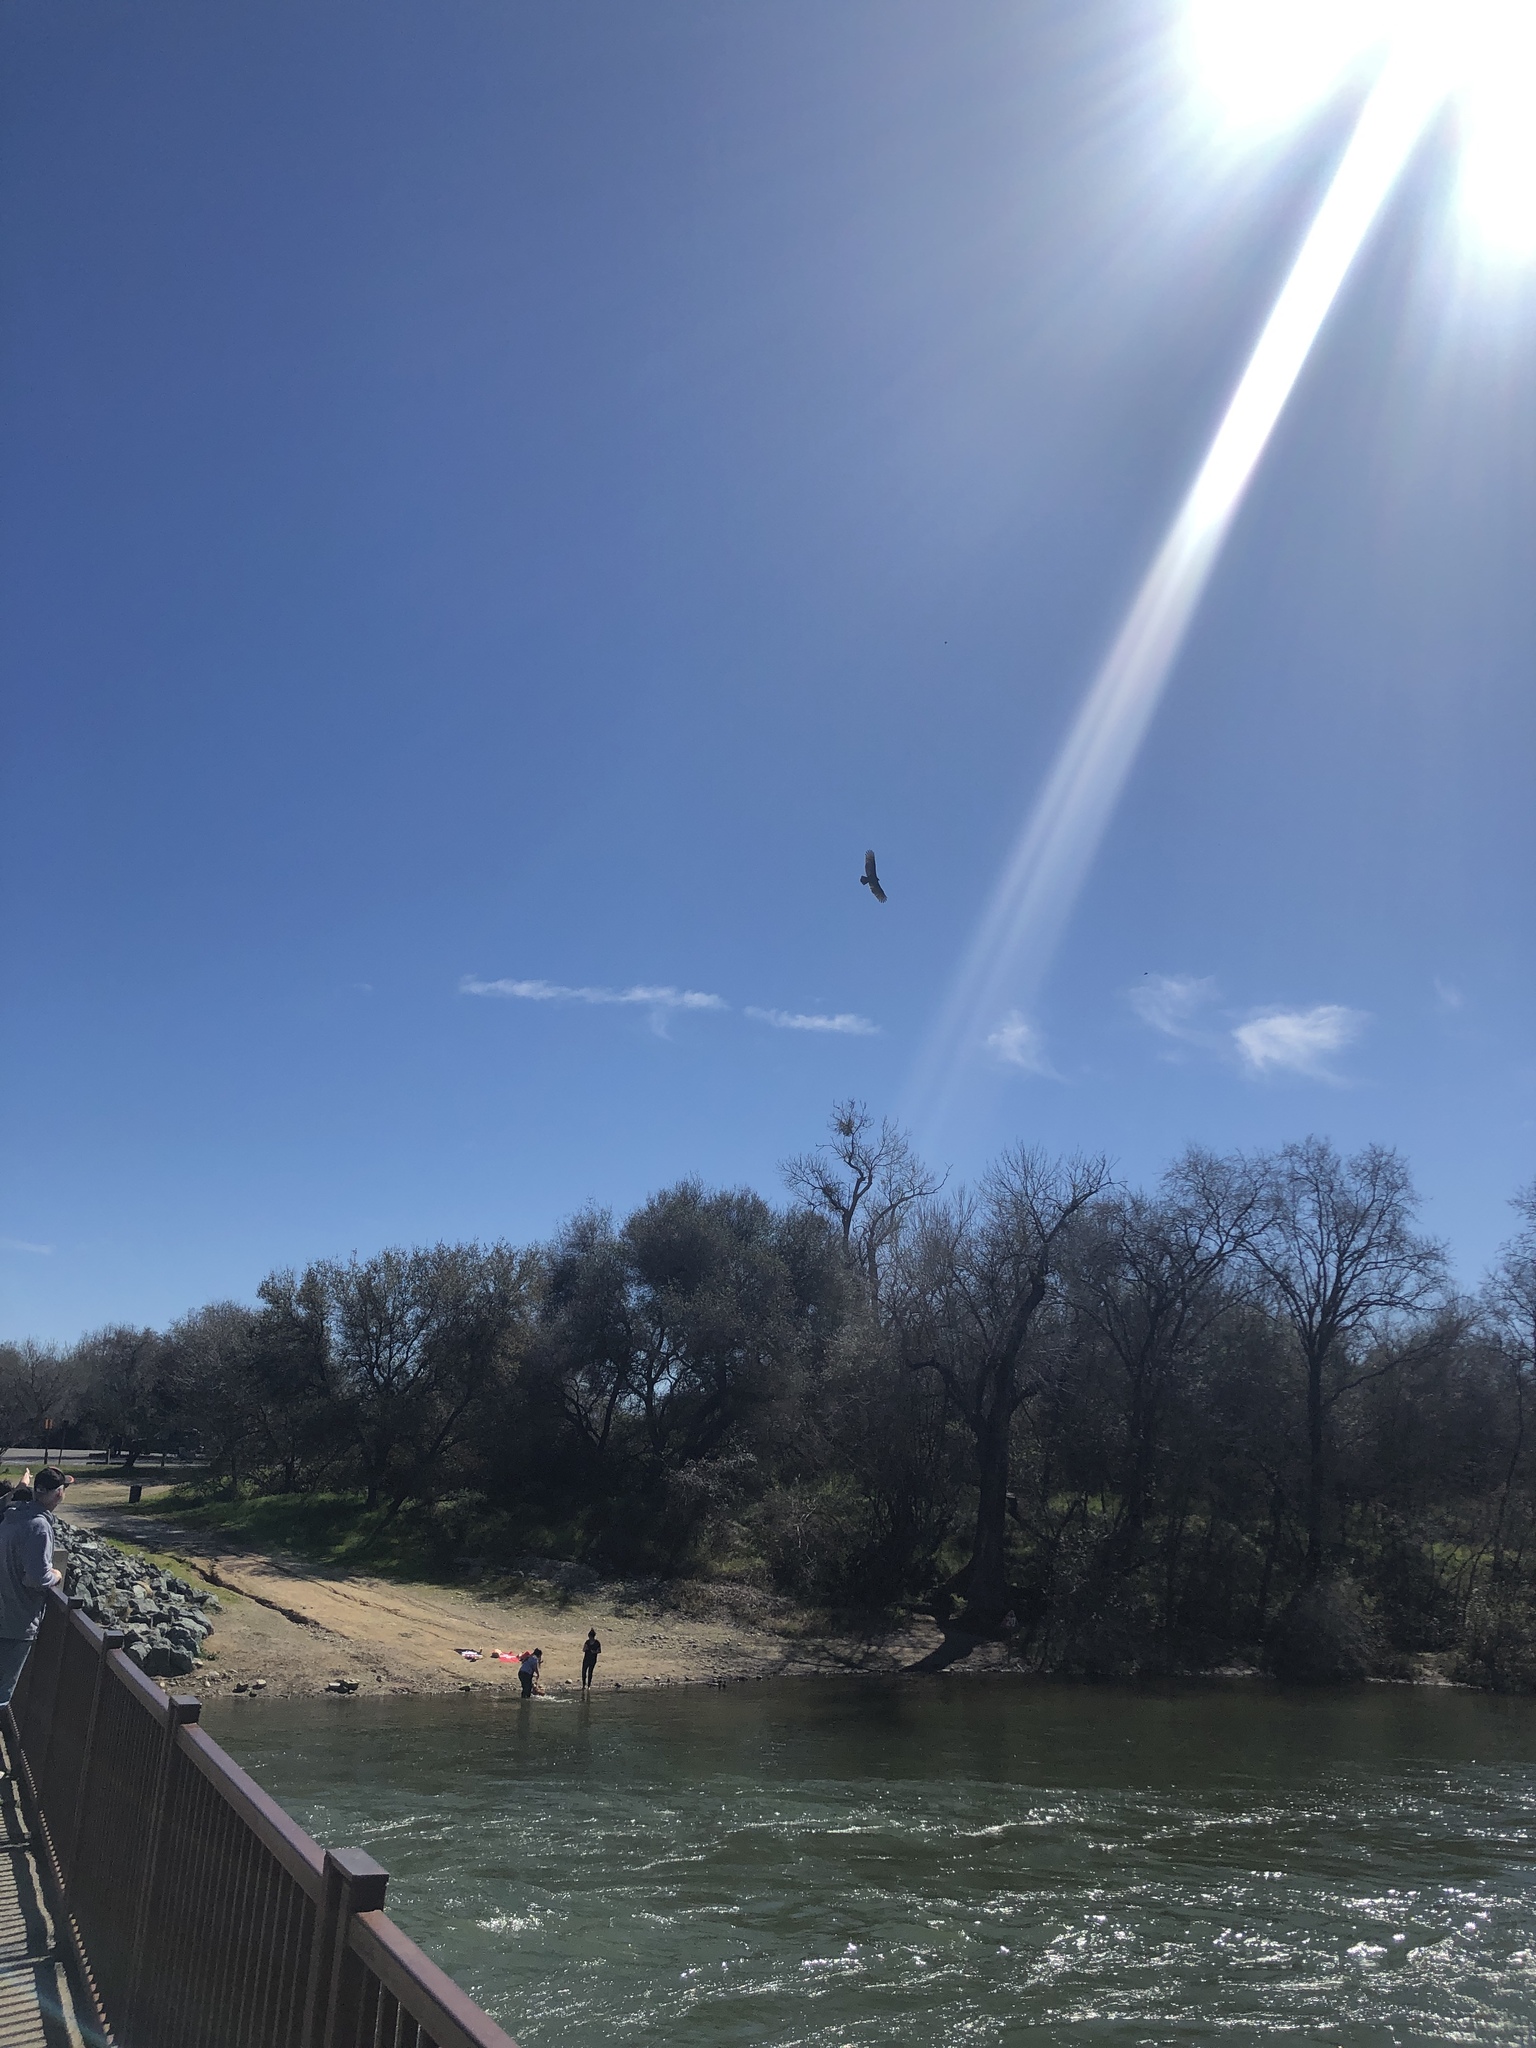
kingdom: Animalia
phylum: Chordata
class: Aves
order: Accipitriformes
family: Cathartidae
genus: Cathartes
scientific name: Cathartes aura
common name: Turkey vulture
